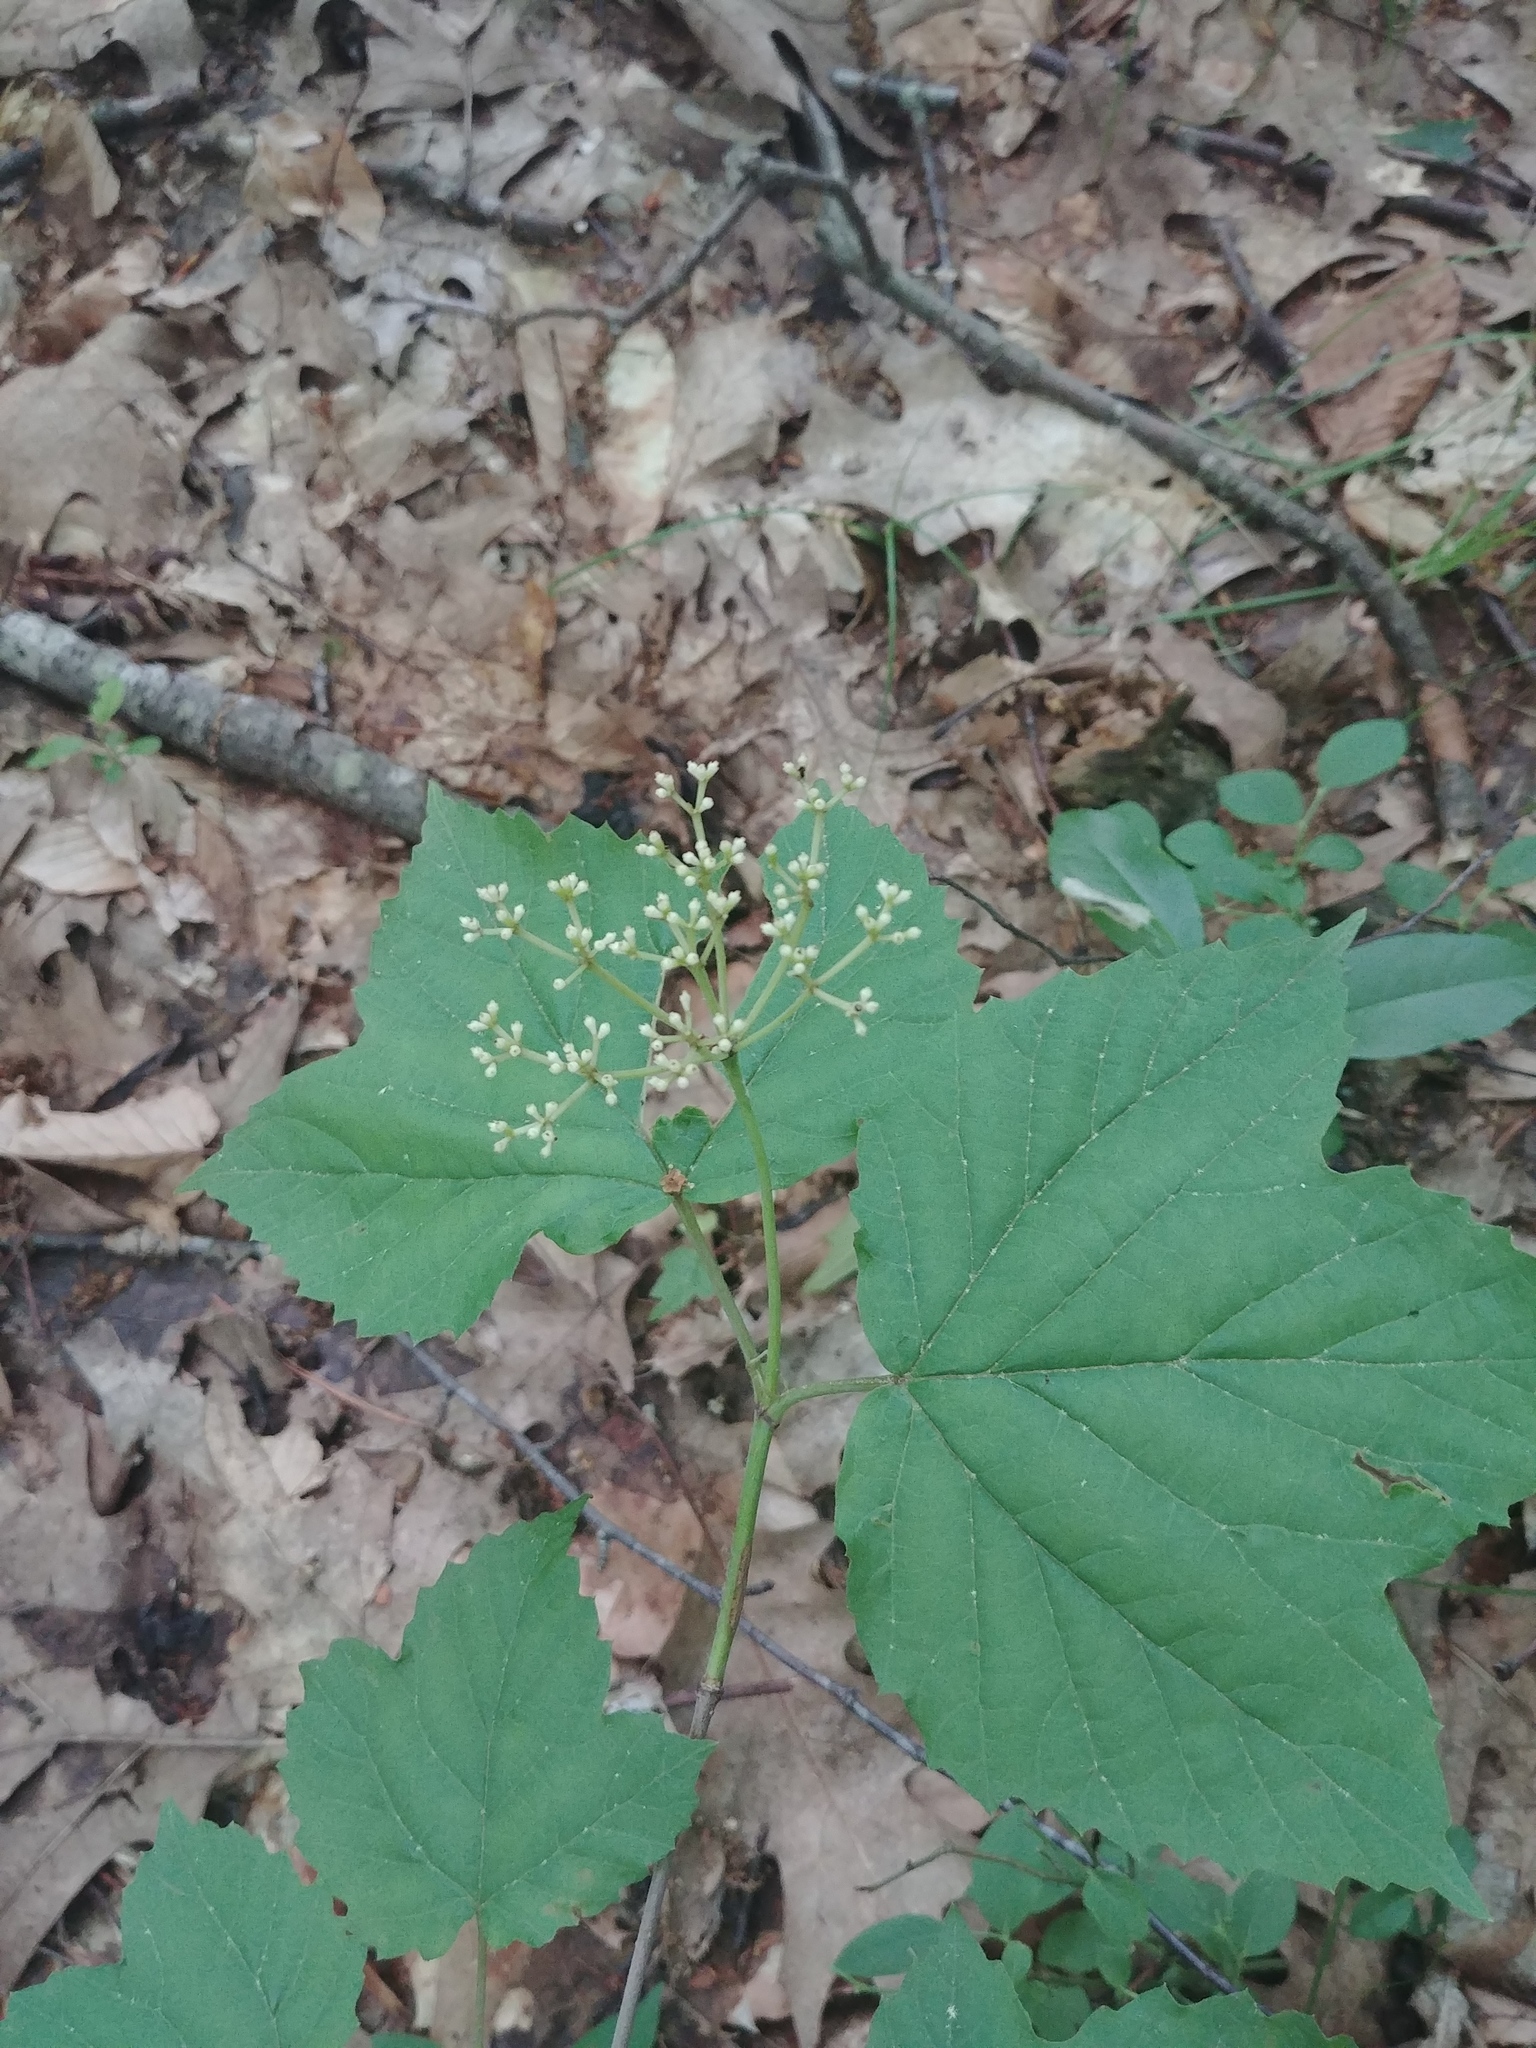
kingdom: Plantae
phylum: Tracheophyta
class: Magnoliopsida
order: Dipsacales
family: Viburnaceae
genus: Viburnum
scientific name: Viburnum acerifolium
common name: Dockmackie
